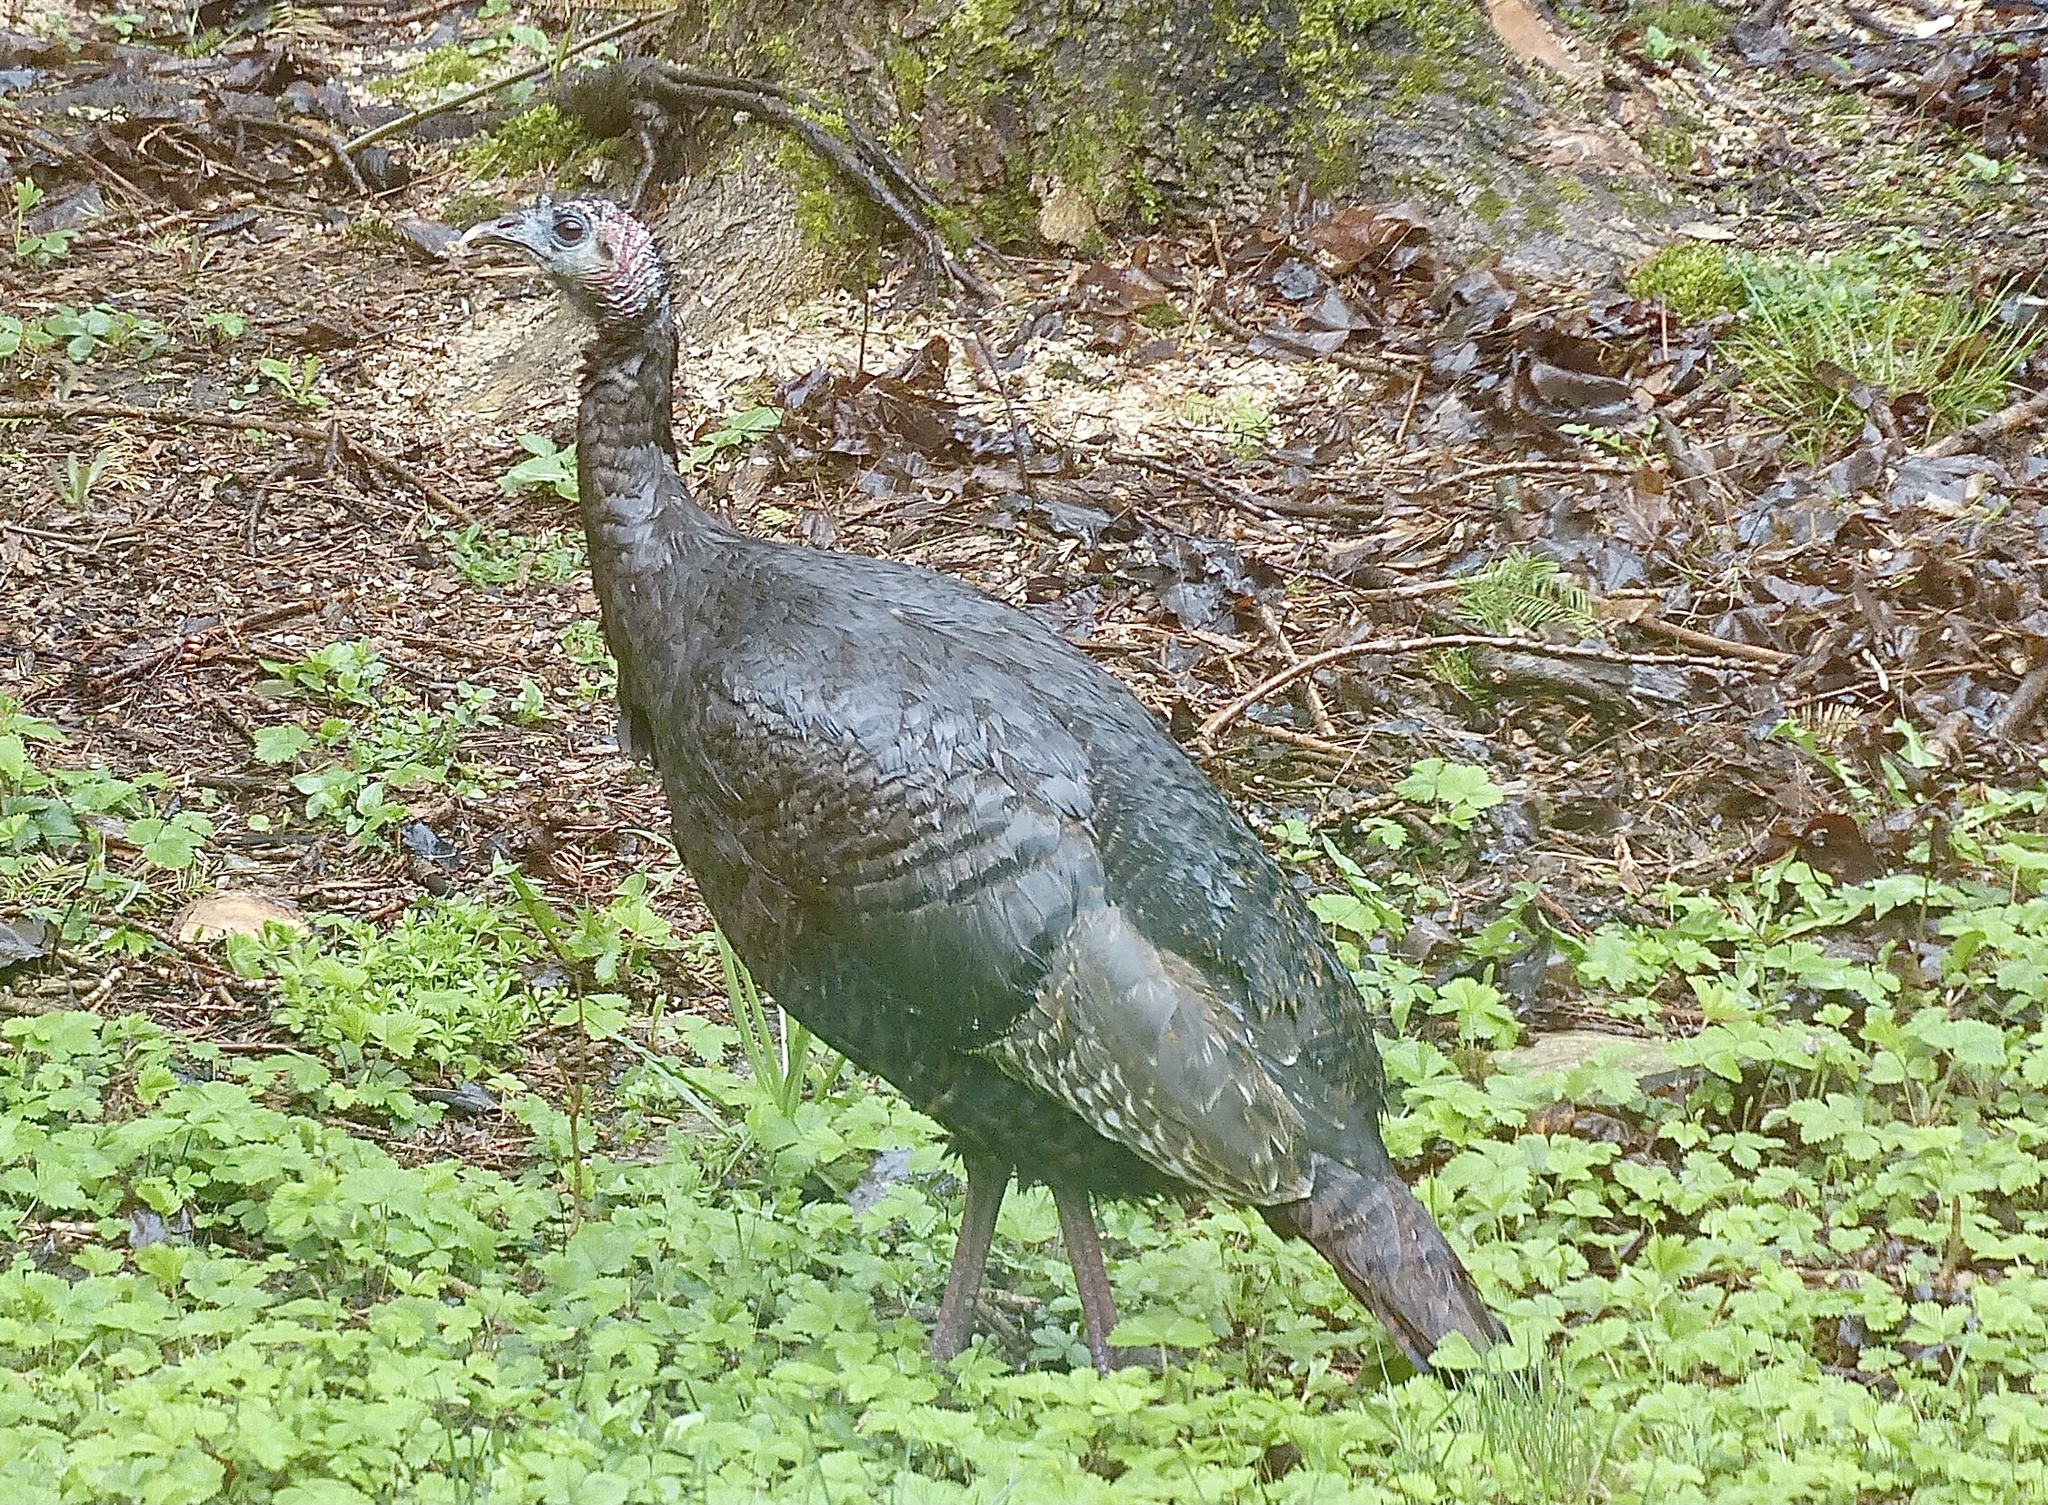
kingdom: Animalia
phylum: Chordata
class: Aves
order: Galliformes
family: Phasianidae
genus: Meleagris
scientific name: Meleagris gallopavo
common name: Wild turkey
